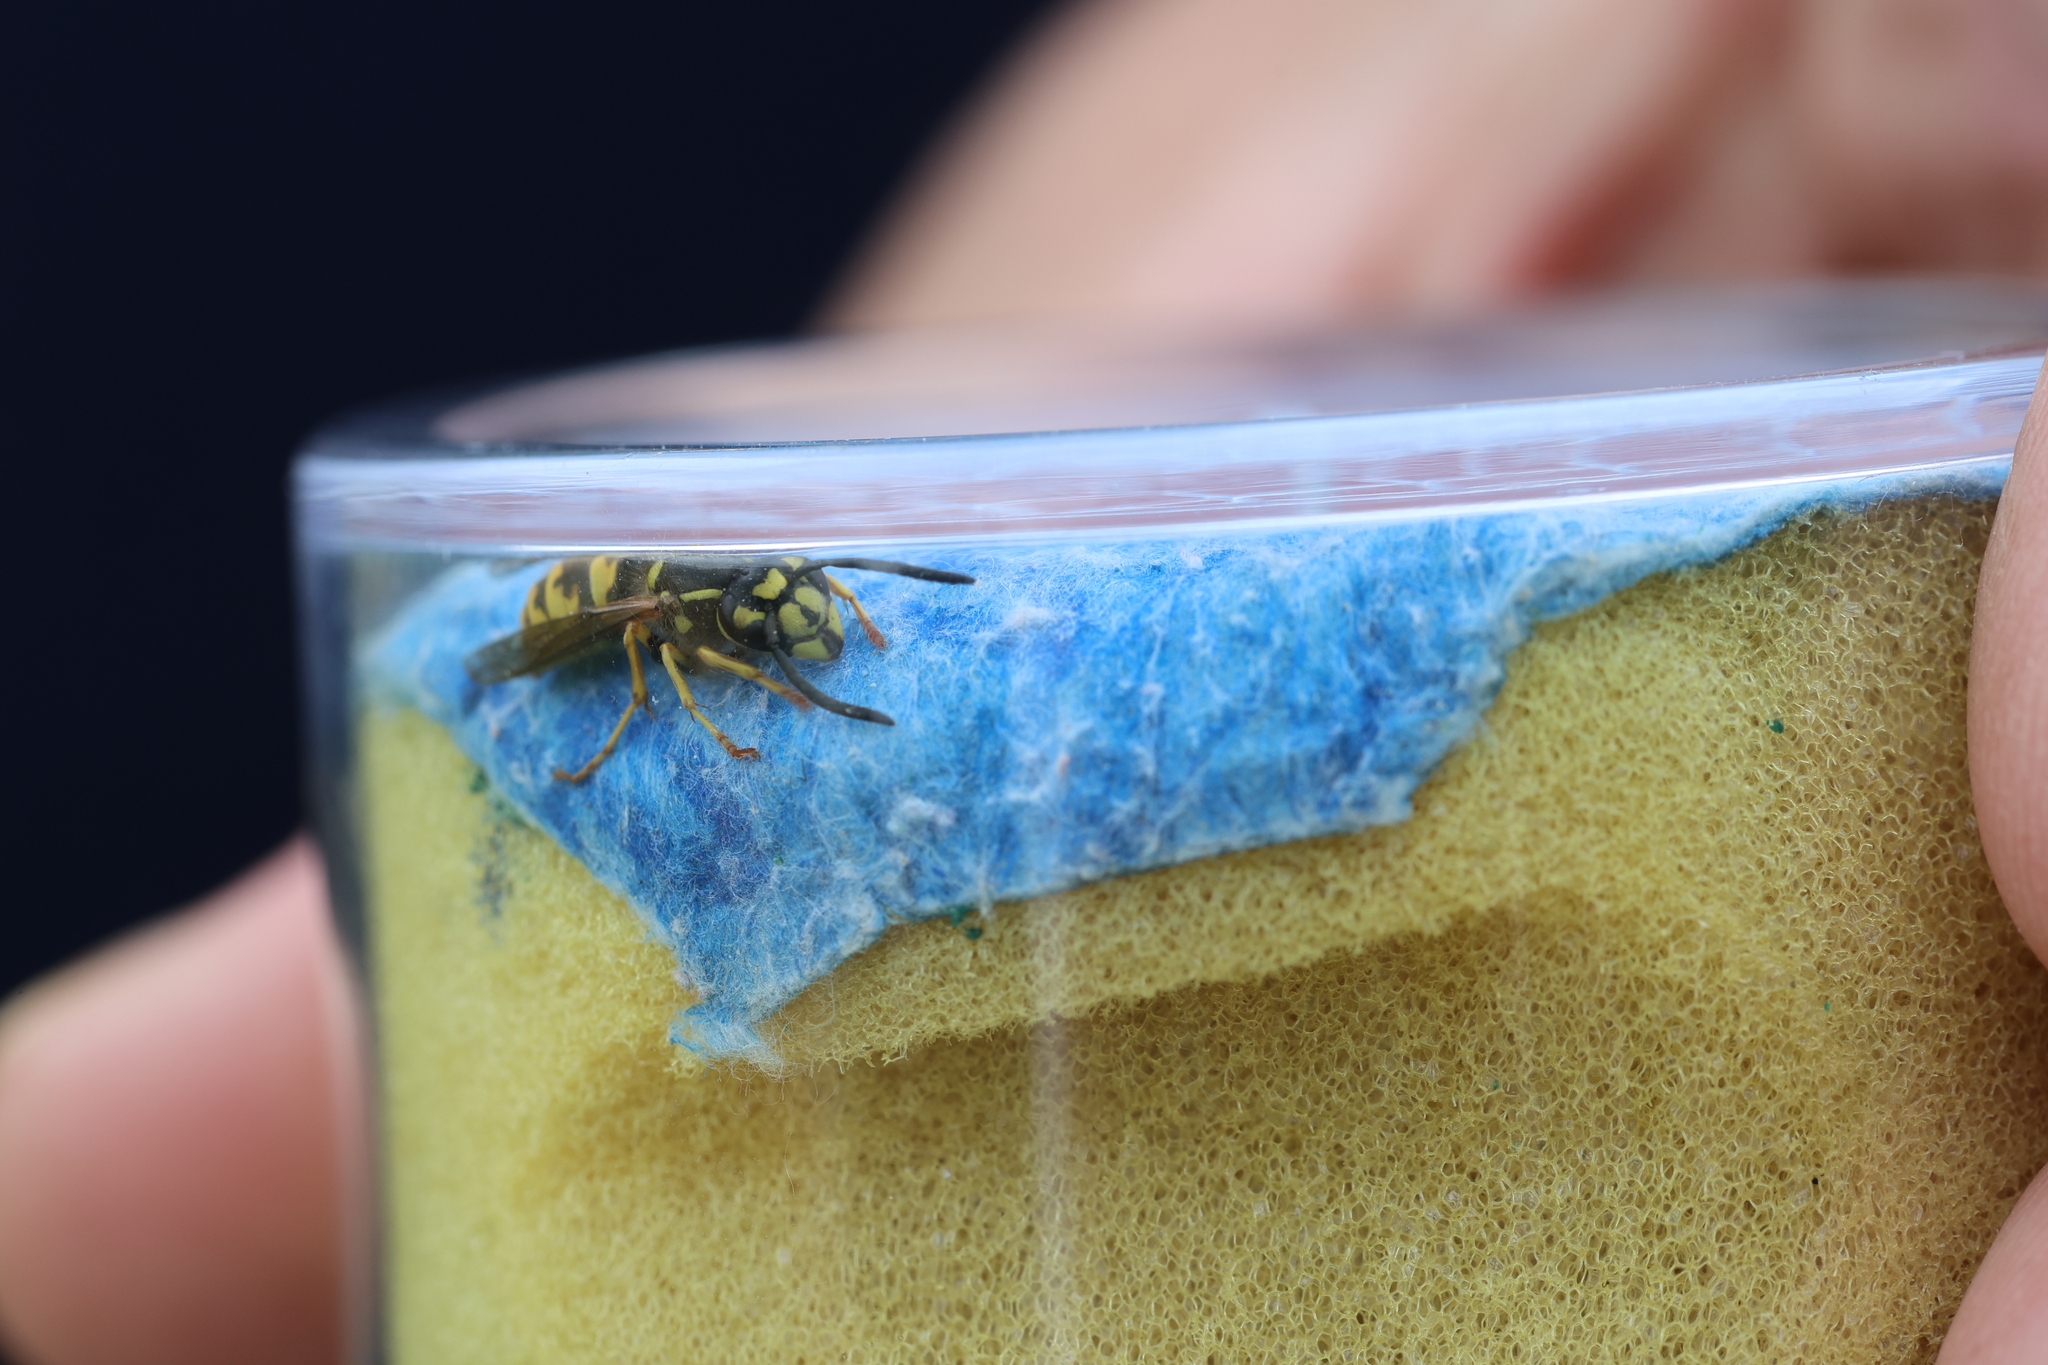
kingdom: Animalia
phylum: Arthropoda
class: Insecta
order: Hymenoptera
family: Vespidae
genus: Vespula
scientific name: Vespula vulgaris
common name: Common wasp
